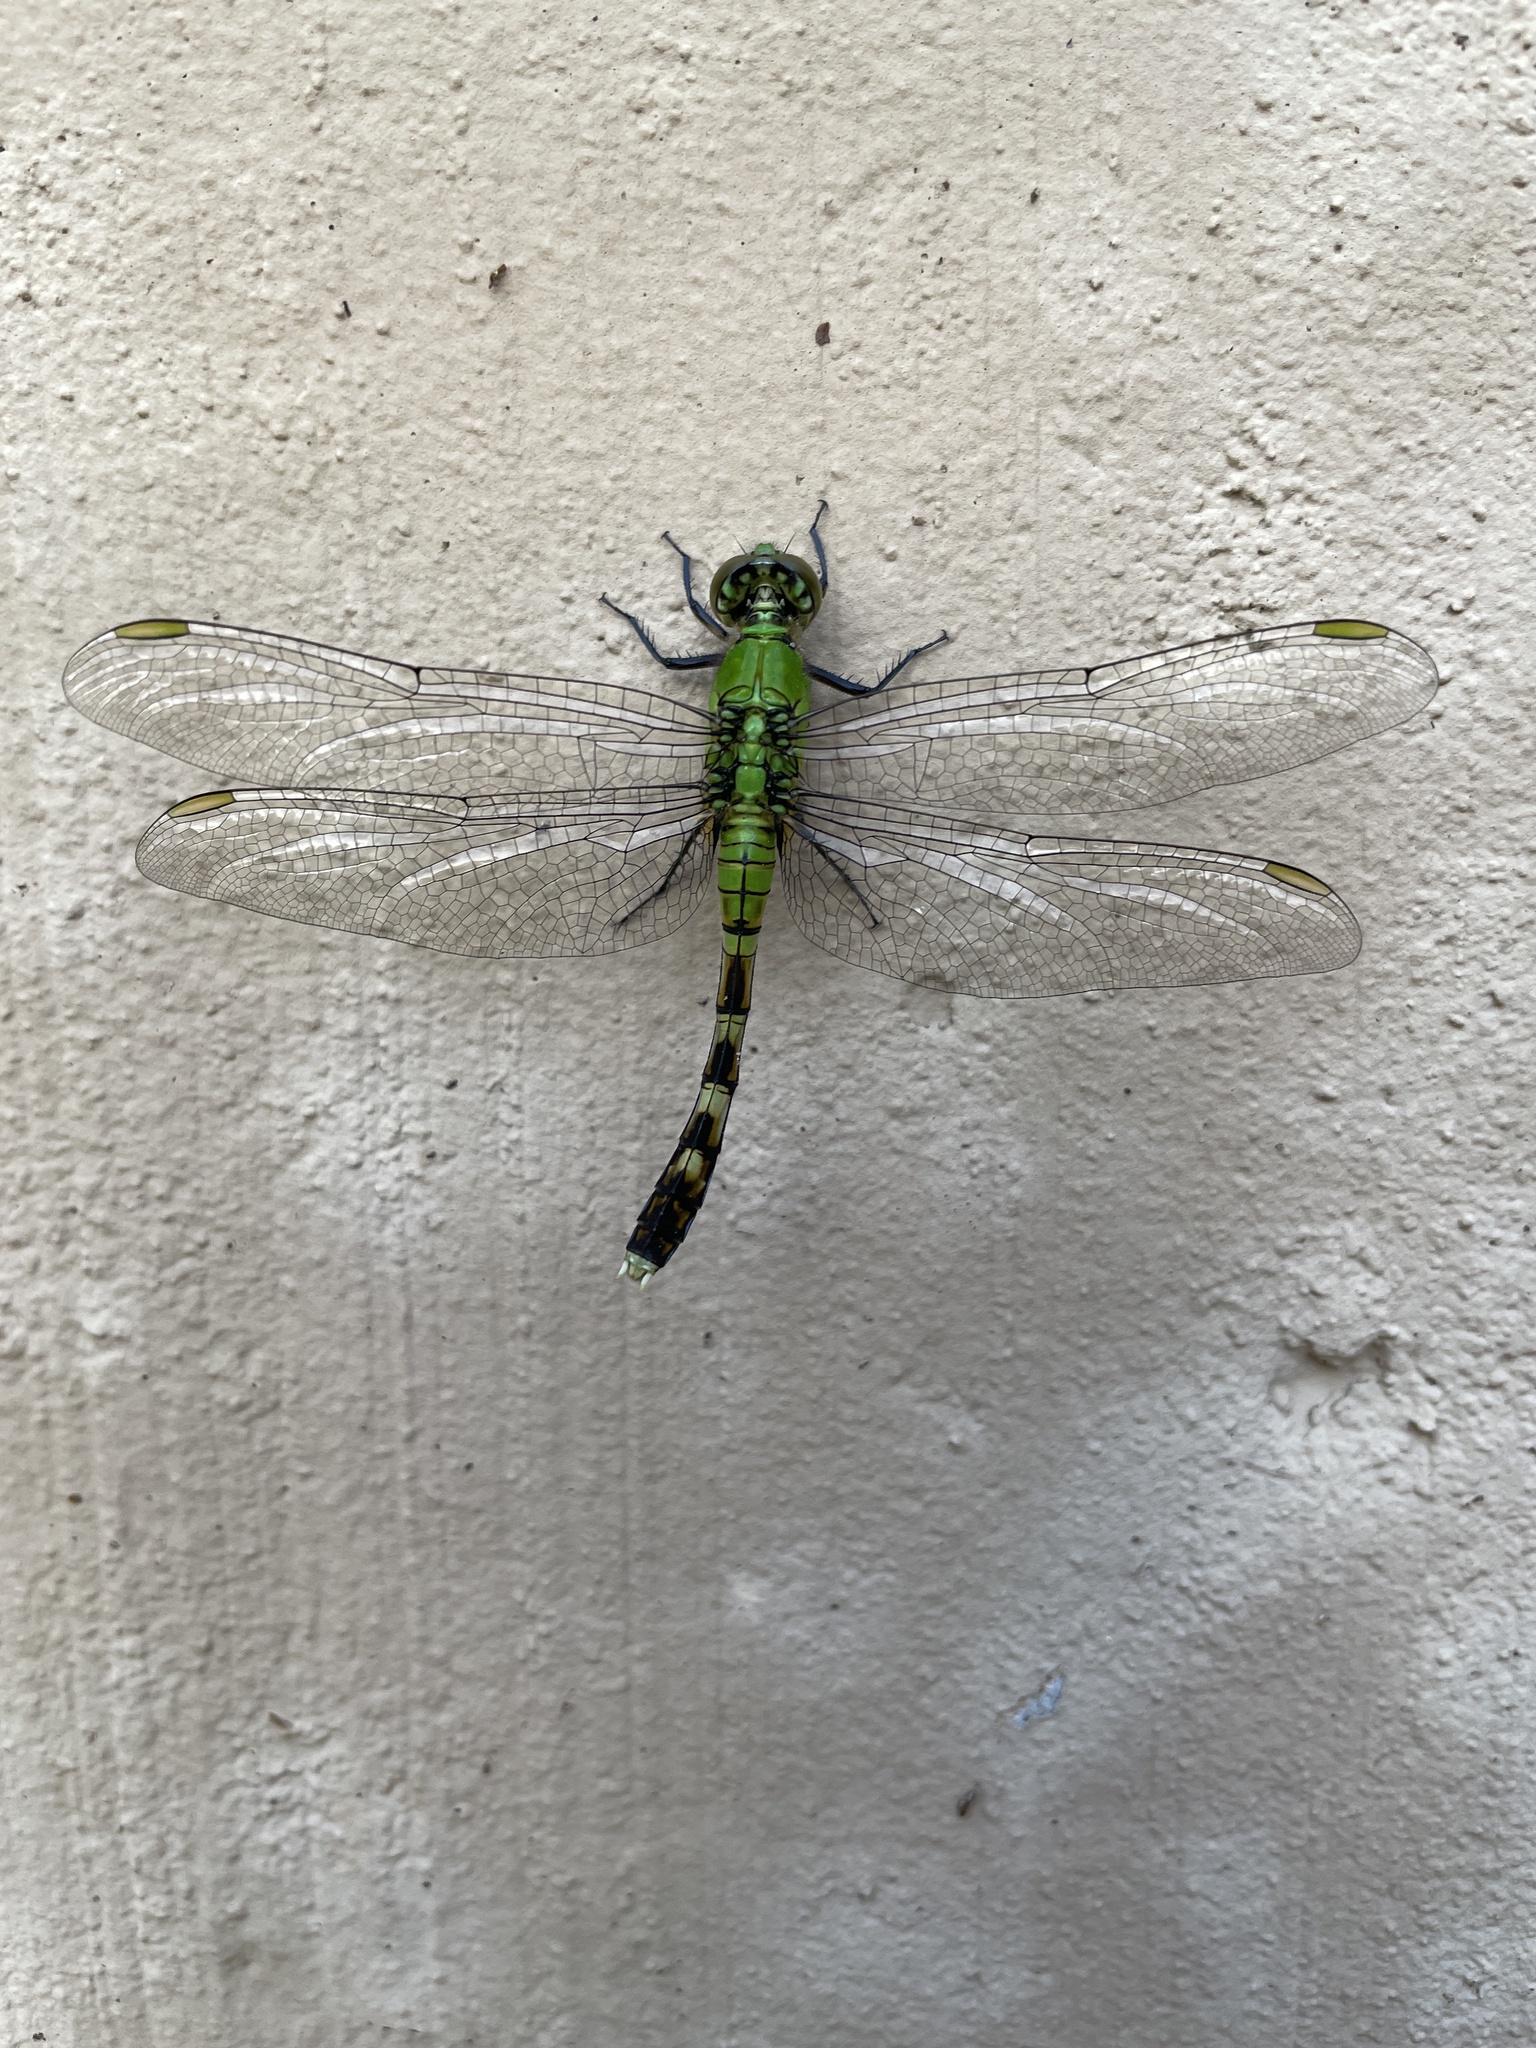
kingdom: Animalia
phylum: Arthropoda
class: Insecta
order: Odonata
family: Libellulidae
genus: Erythemis
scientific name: Erythemis simplicicollis
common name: Eastern pondhawk
